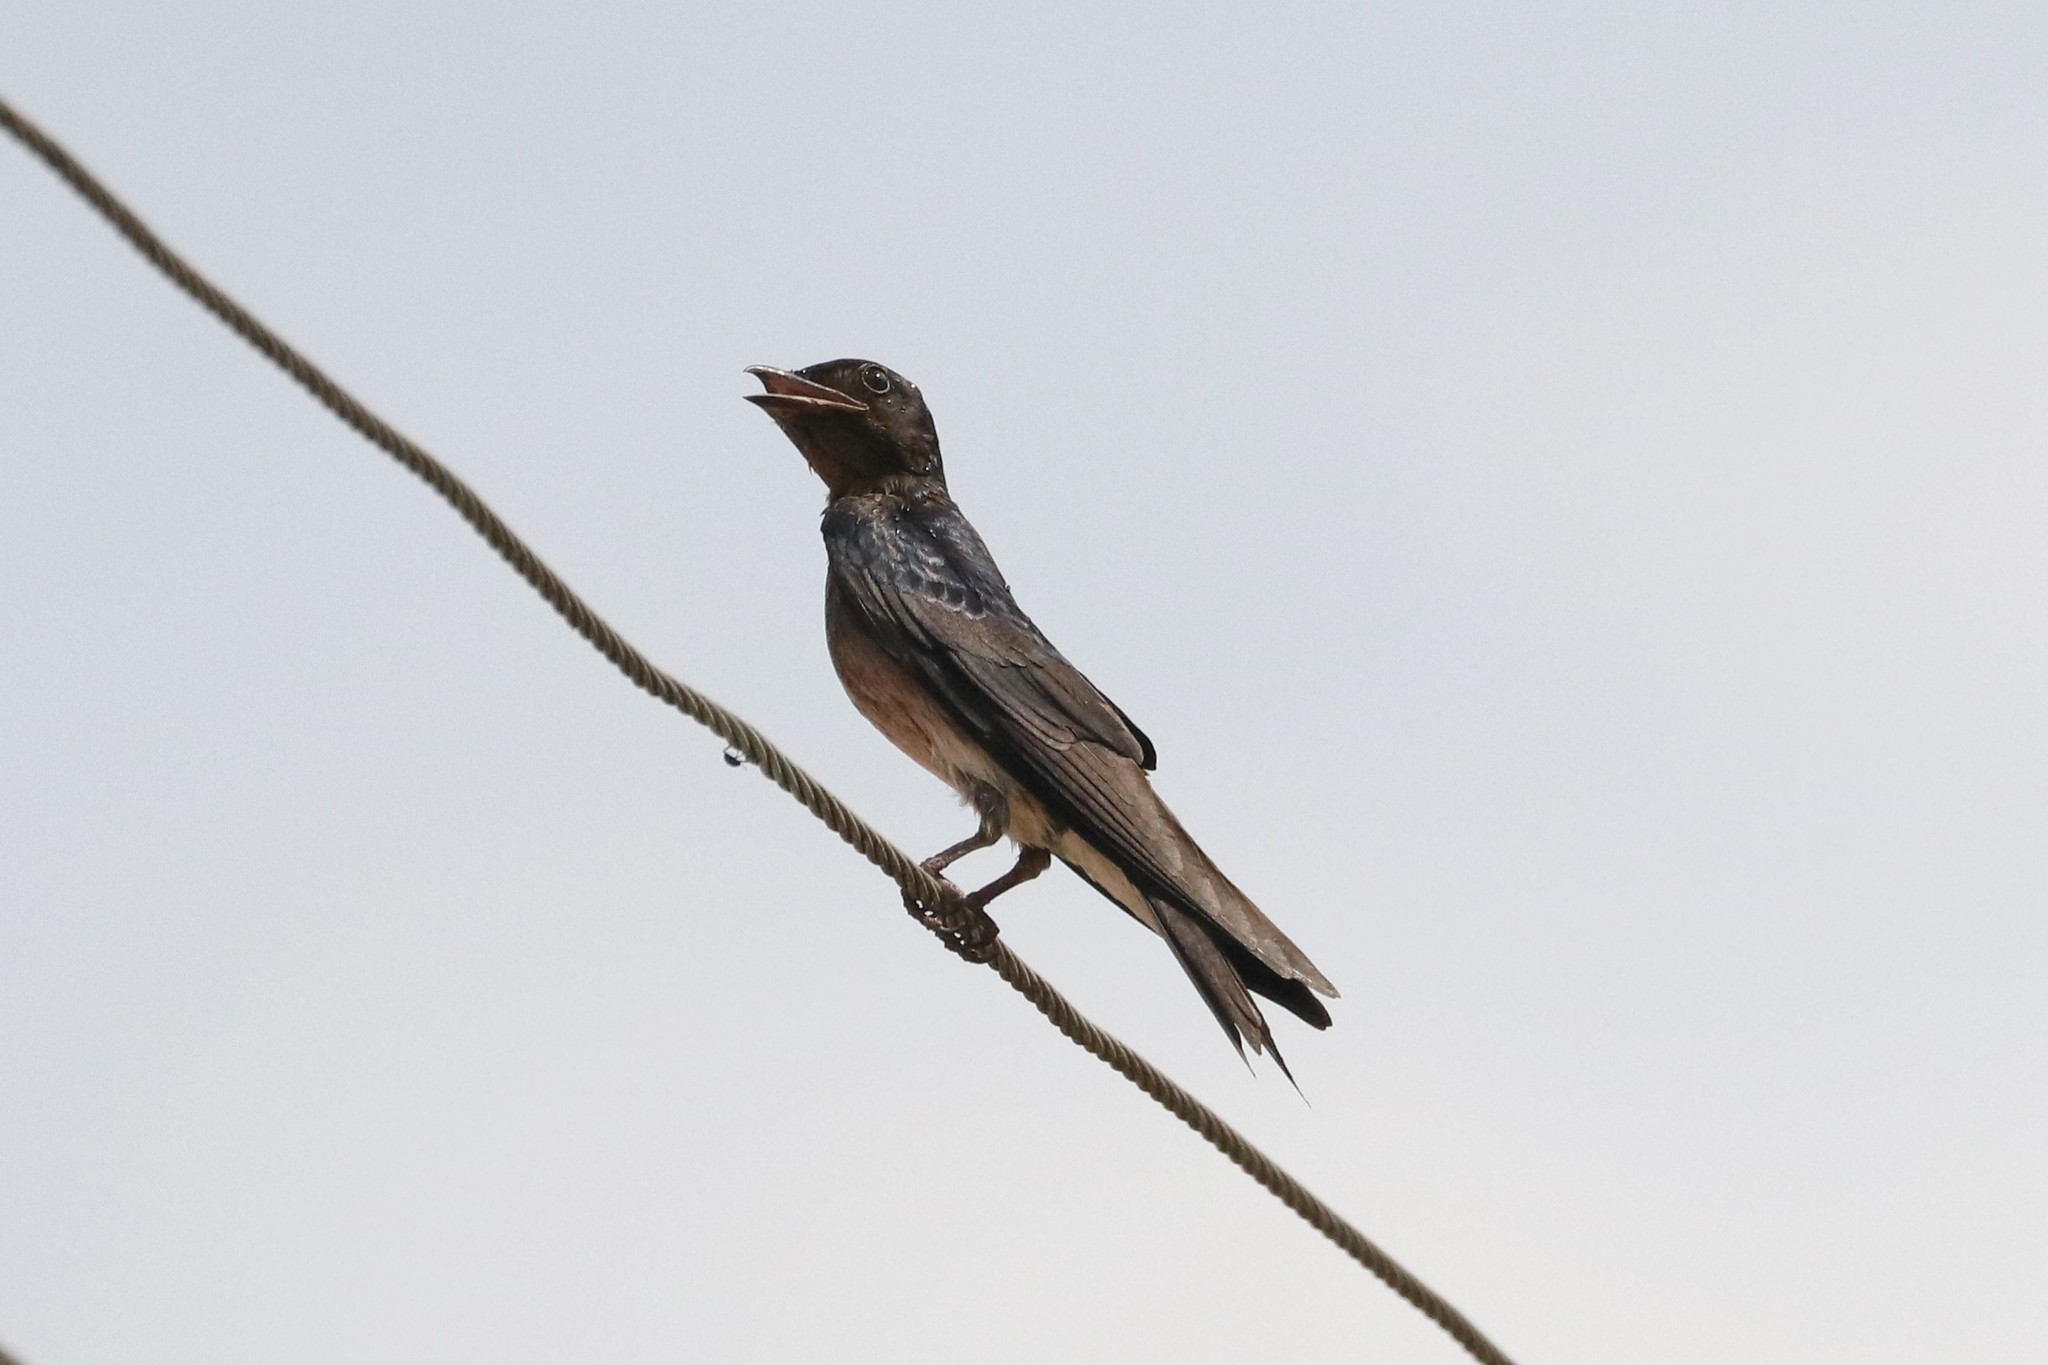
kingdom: Animalia
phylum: Chordata
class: Aves
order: Passeriformes
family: Hirundinidae
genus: Progne
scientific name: Progne chalybea
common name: Grey-breasted martin
